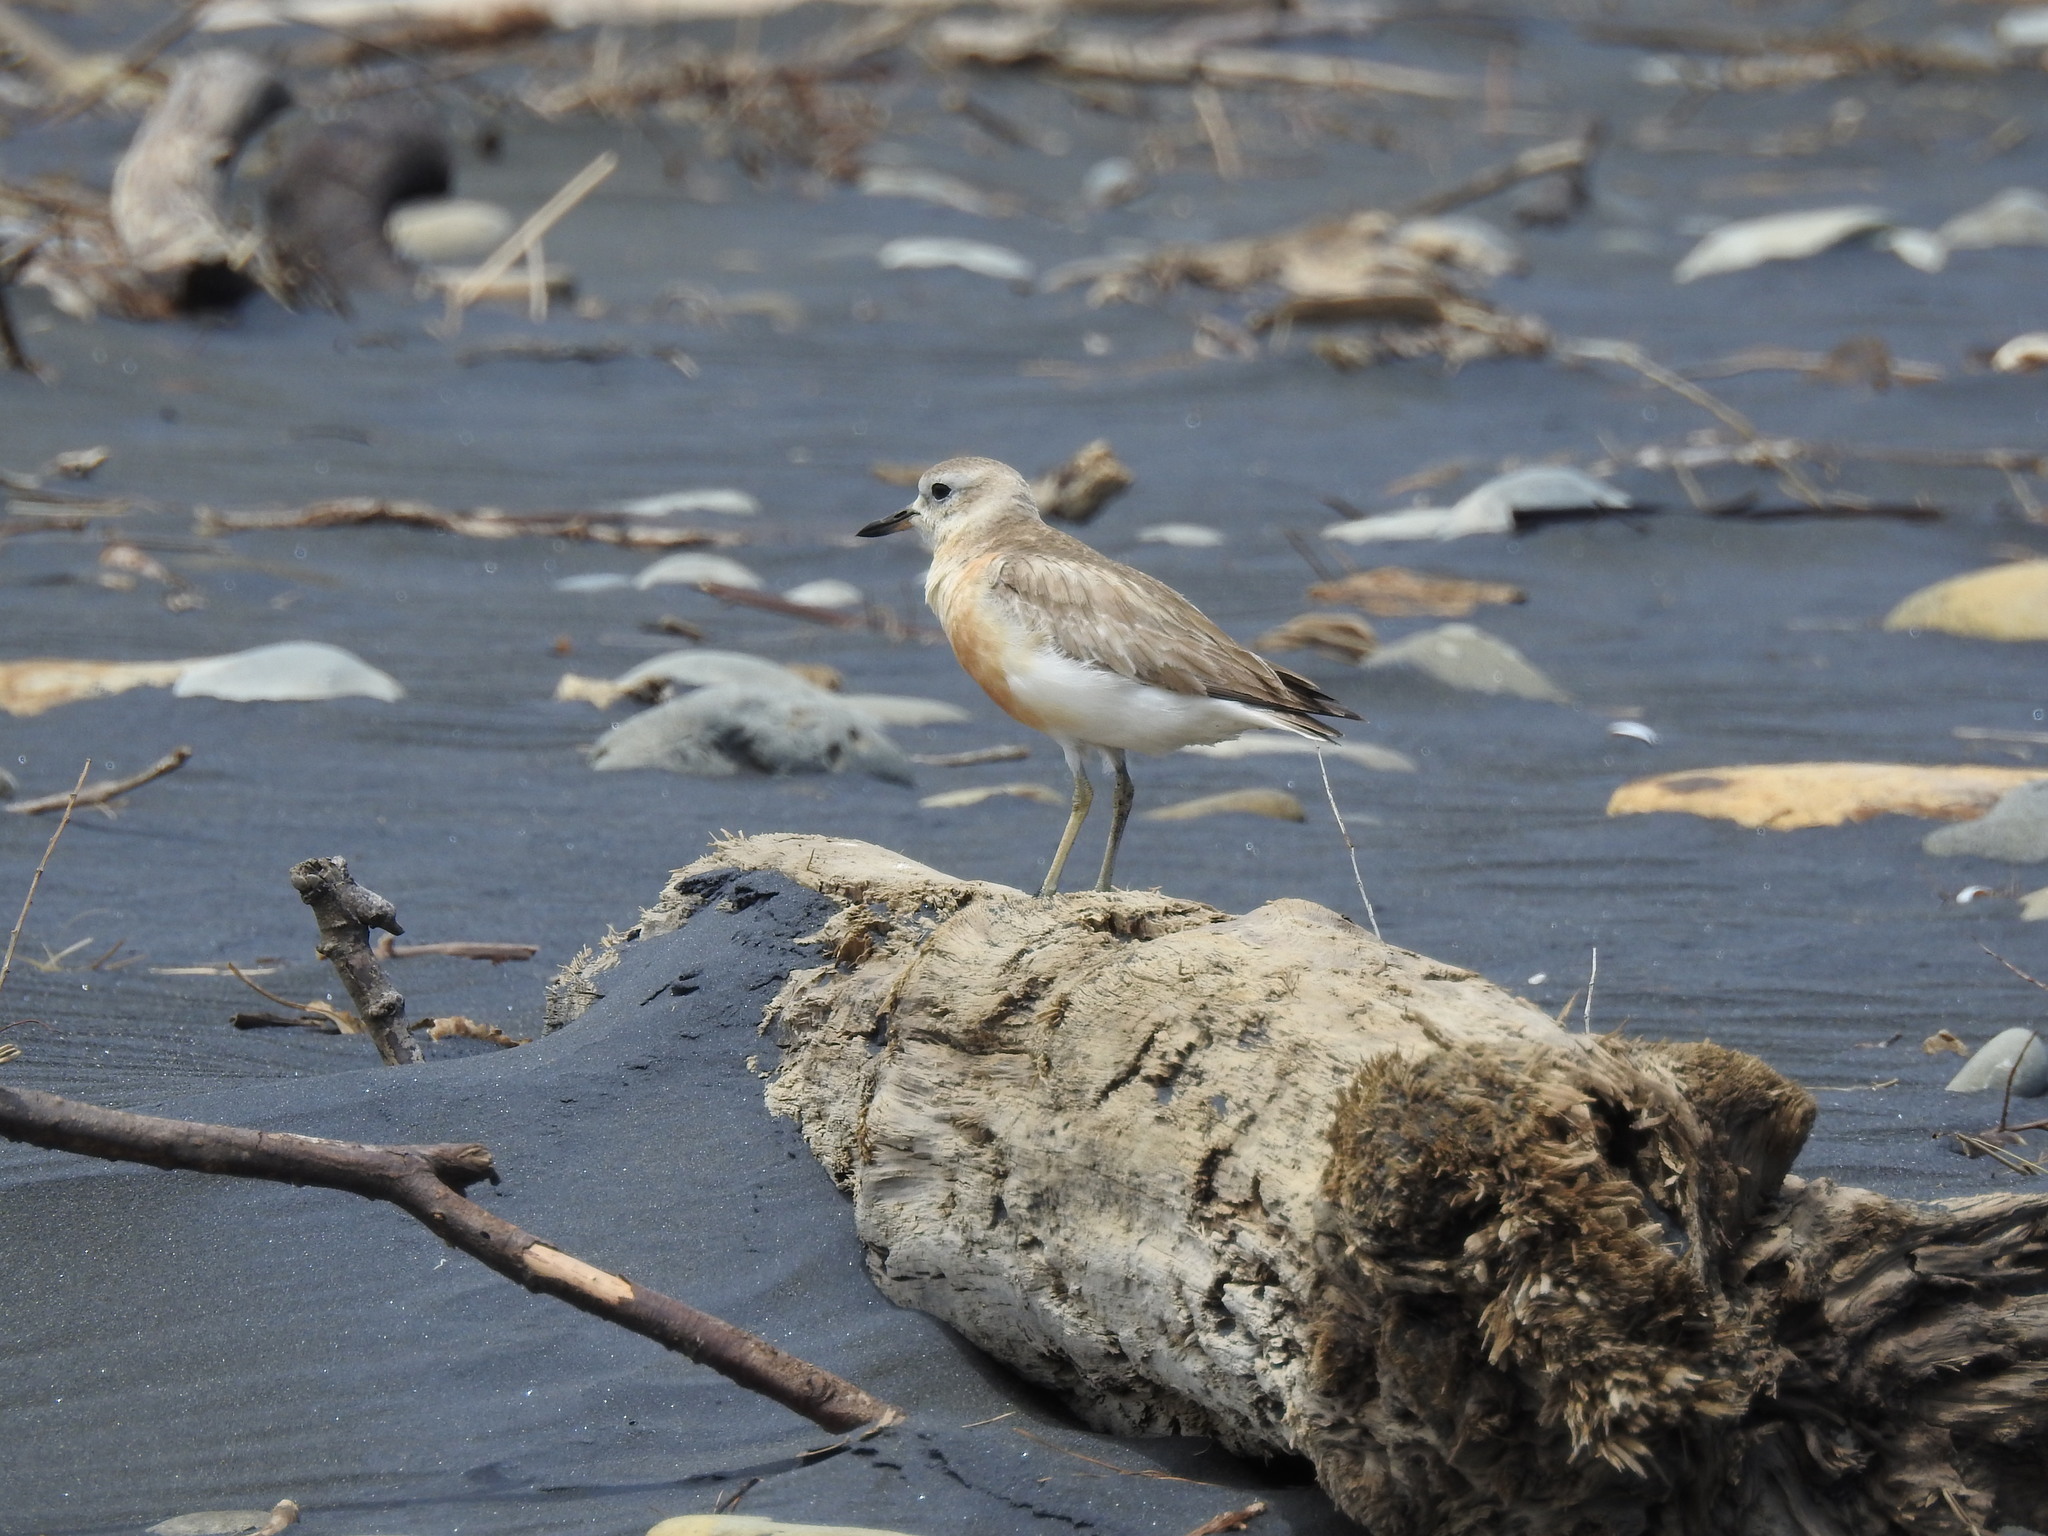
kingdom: Animalia
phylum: Chordata
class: Aves
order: Charadriiformes
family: Charadriidae
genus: Anarhynchus
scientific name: Anarhynchus
